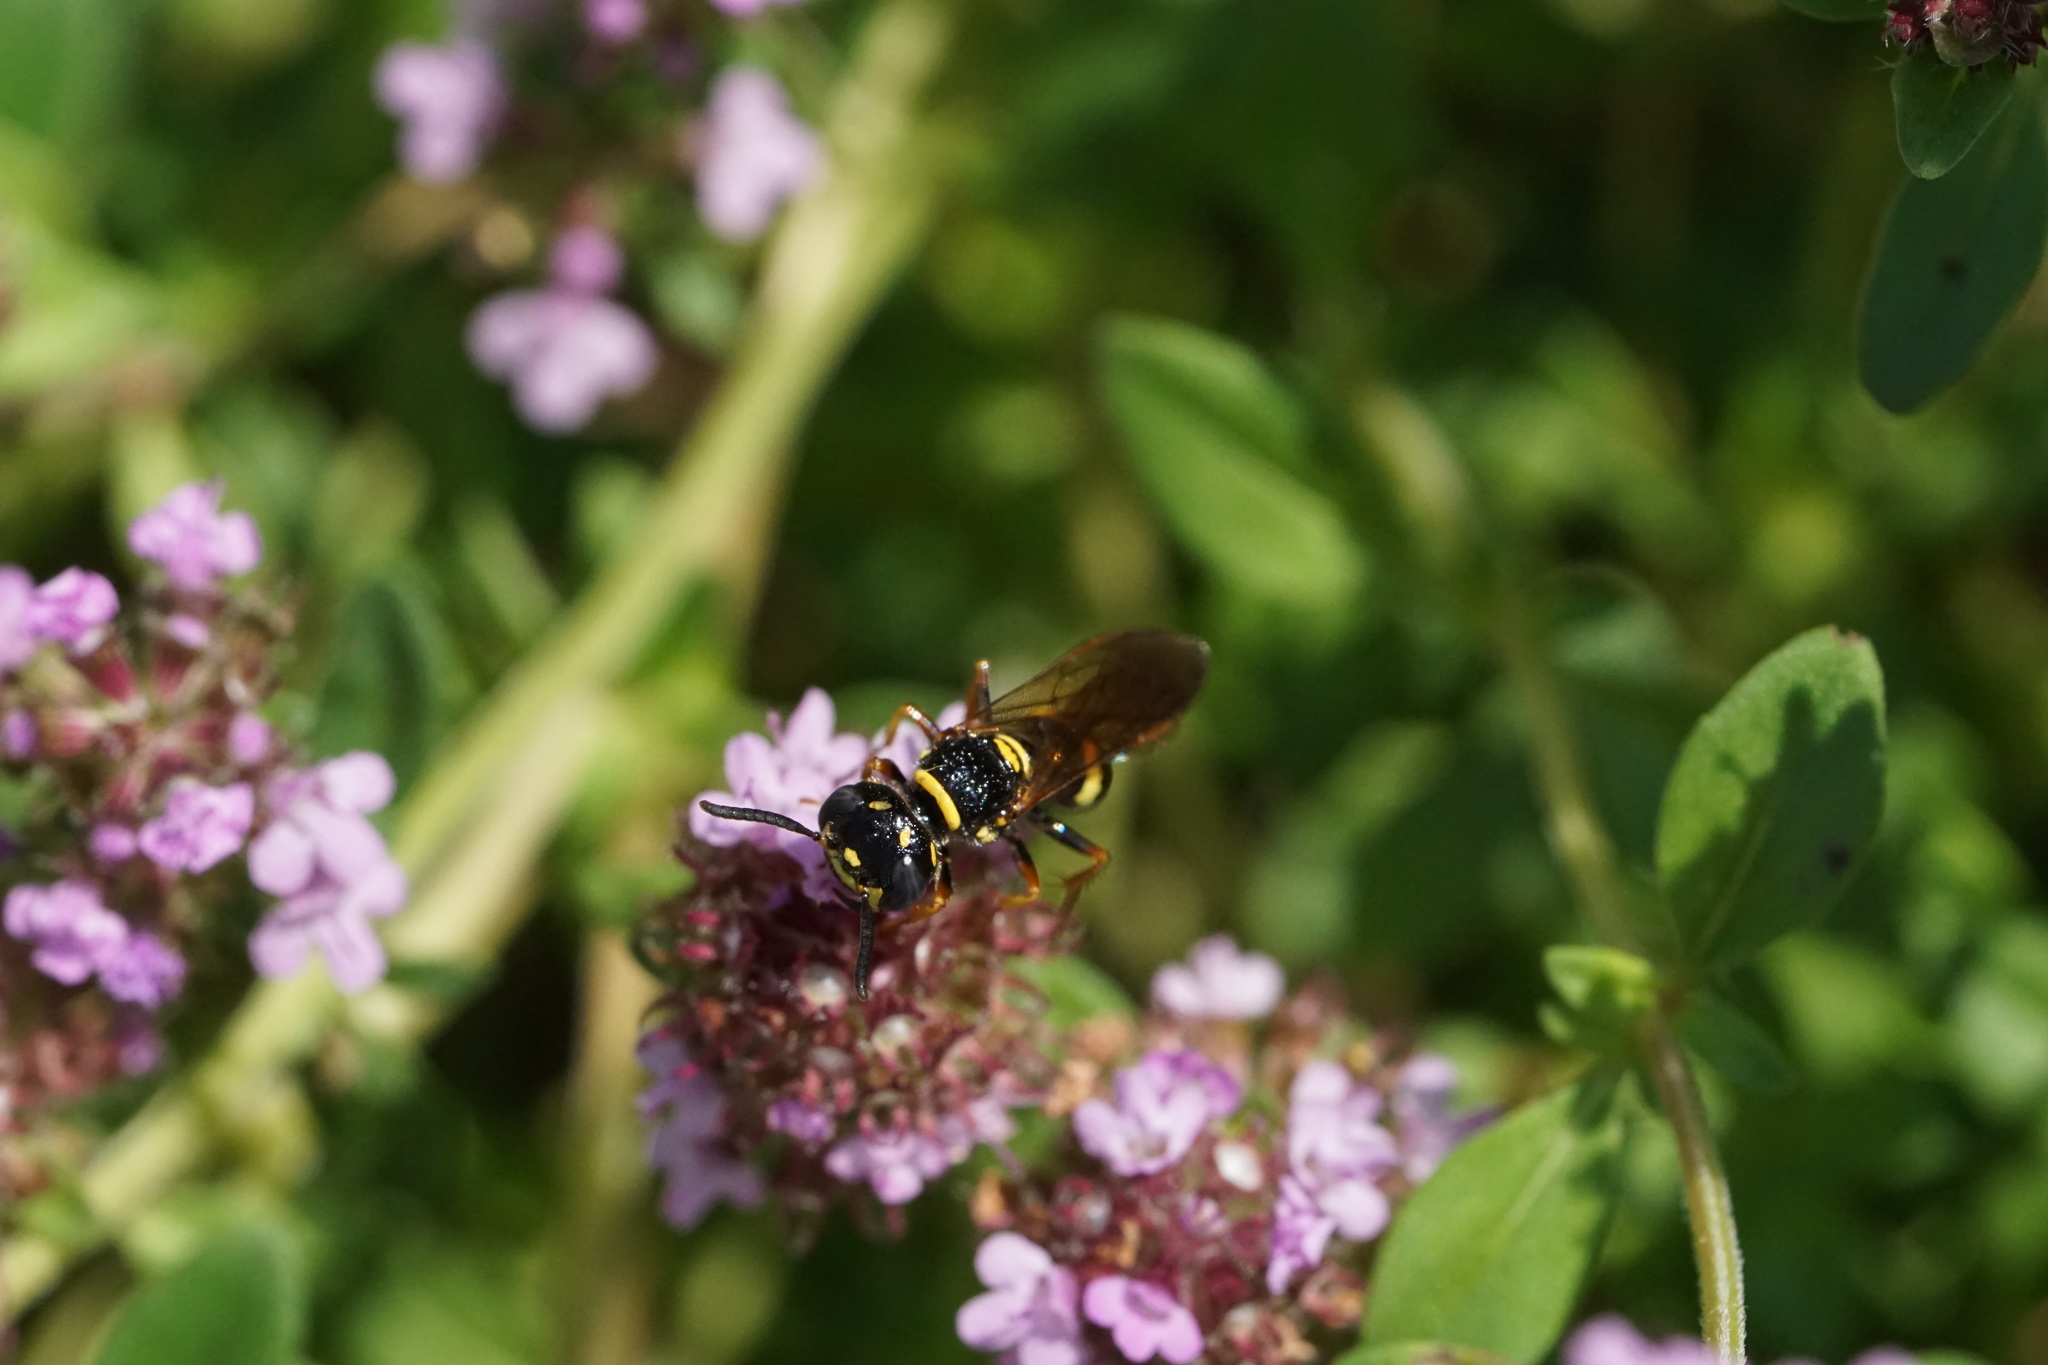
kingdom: Animalia
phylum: Arthropoda
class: Insecta
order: Hymenoptera
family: Crabronidae
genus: Philanthus
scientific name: Philanthus gibbosus
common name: Humped beewolf
